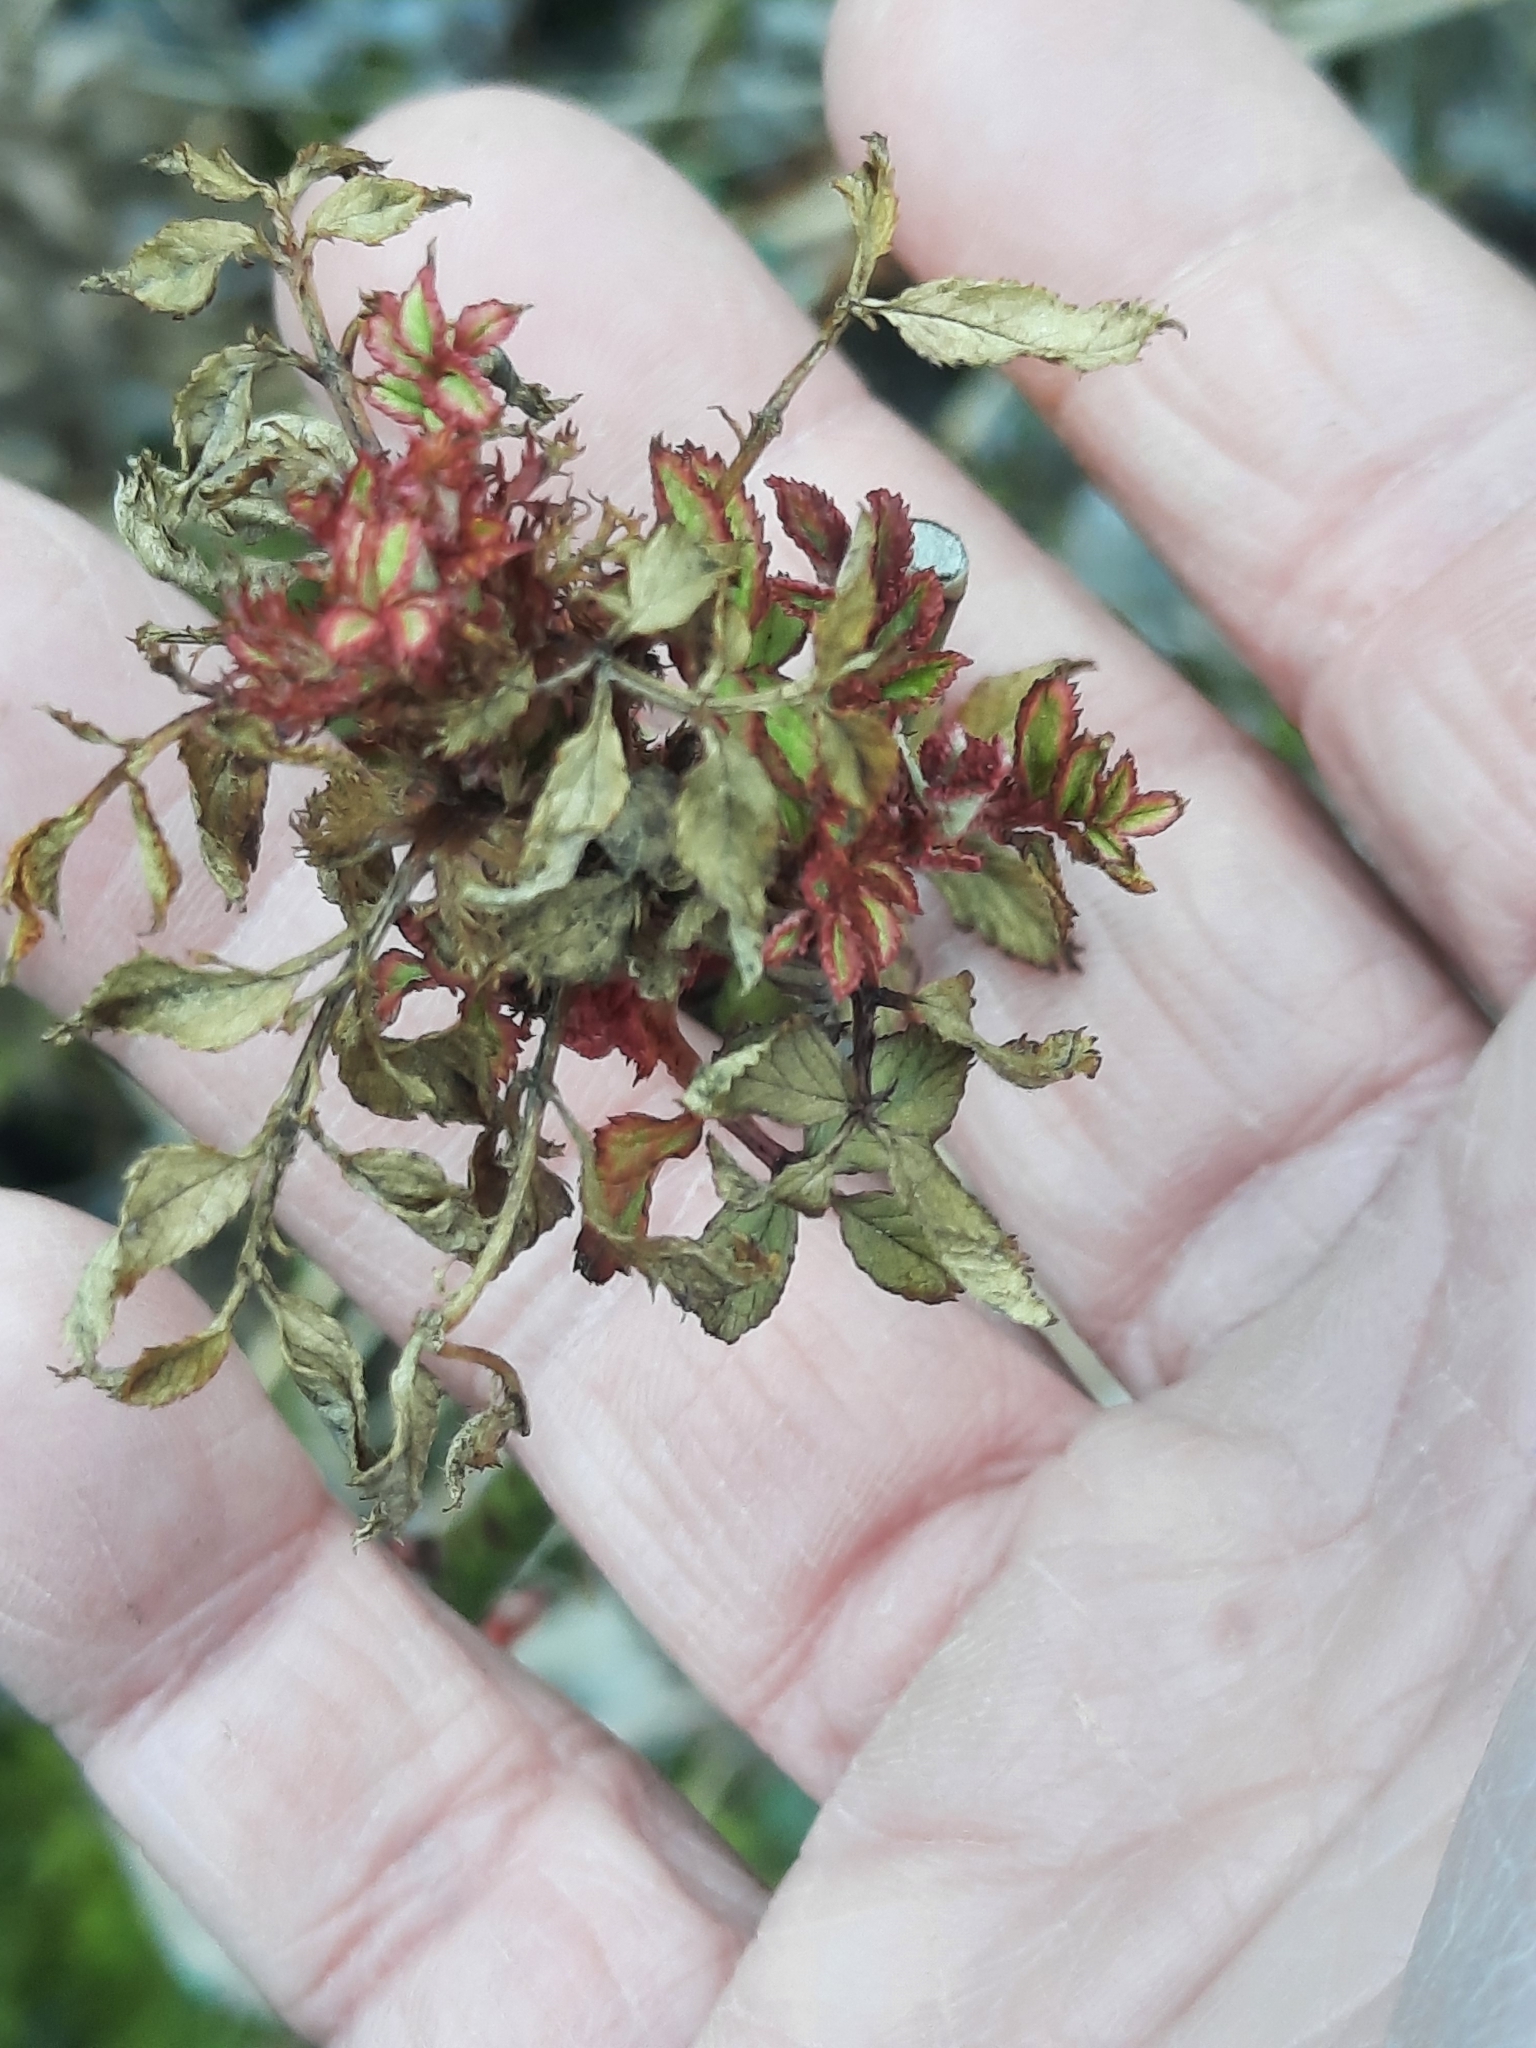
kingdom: Viruses
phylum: Negarnaviricota
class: Ellioviricetes
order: Bunyavirales
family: Fimoviridae
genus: Emaravirus
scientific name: Emaravirus rosae
